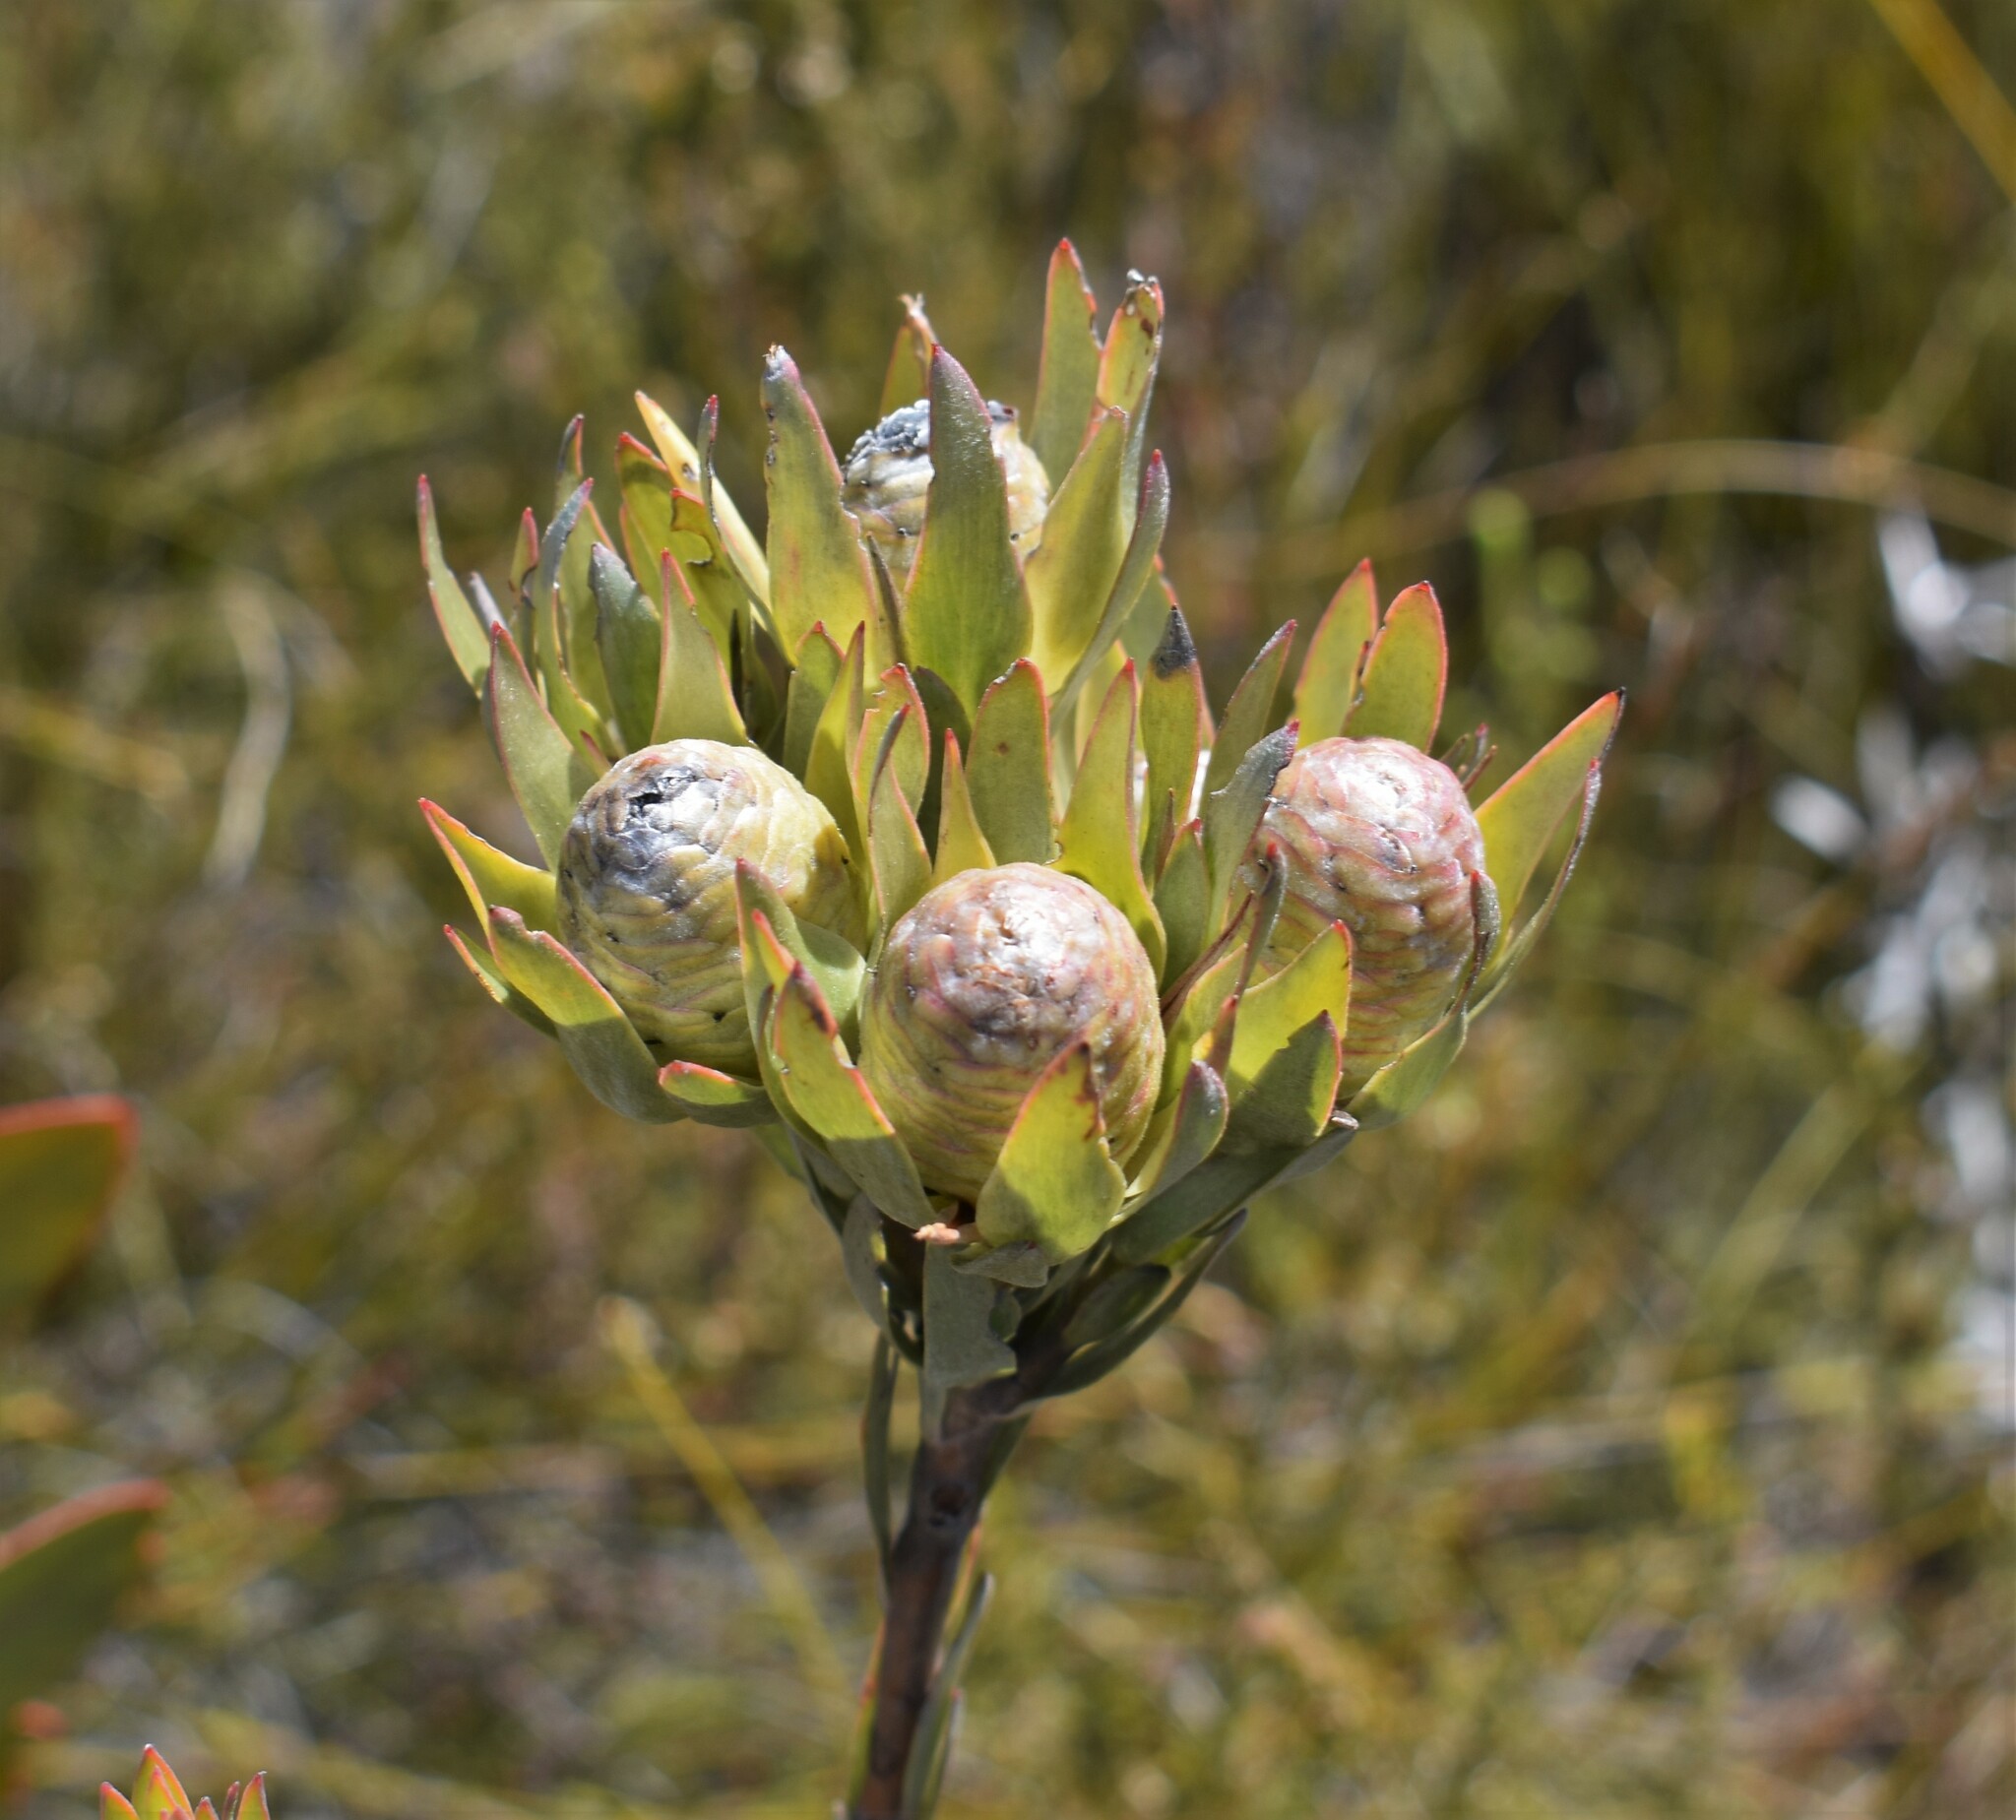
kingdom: Plantae
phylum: Tracheophyta
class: Magnoliopsida
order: Proteales
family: Proteaceae
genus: Leucadendron
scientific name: Leucadendron uliginosum
